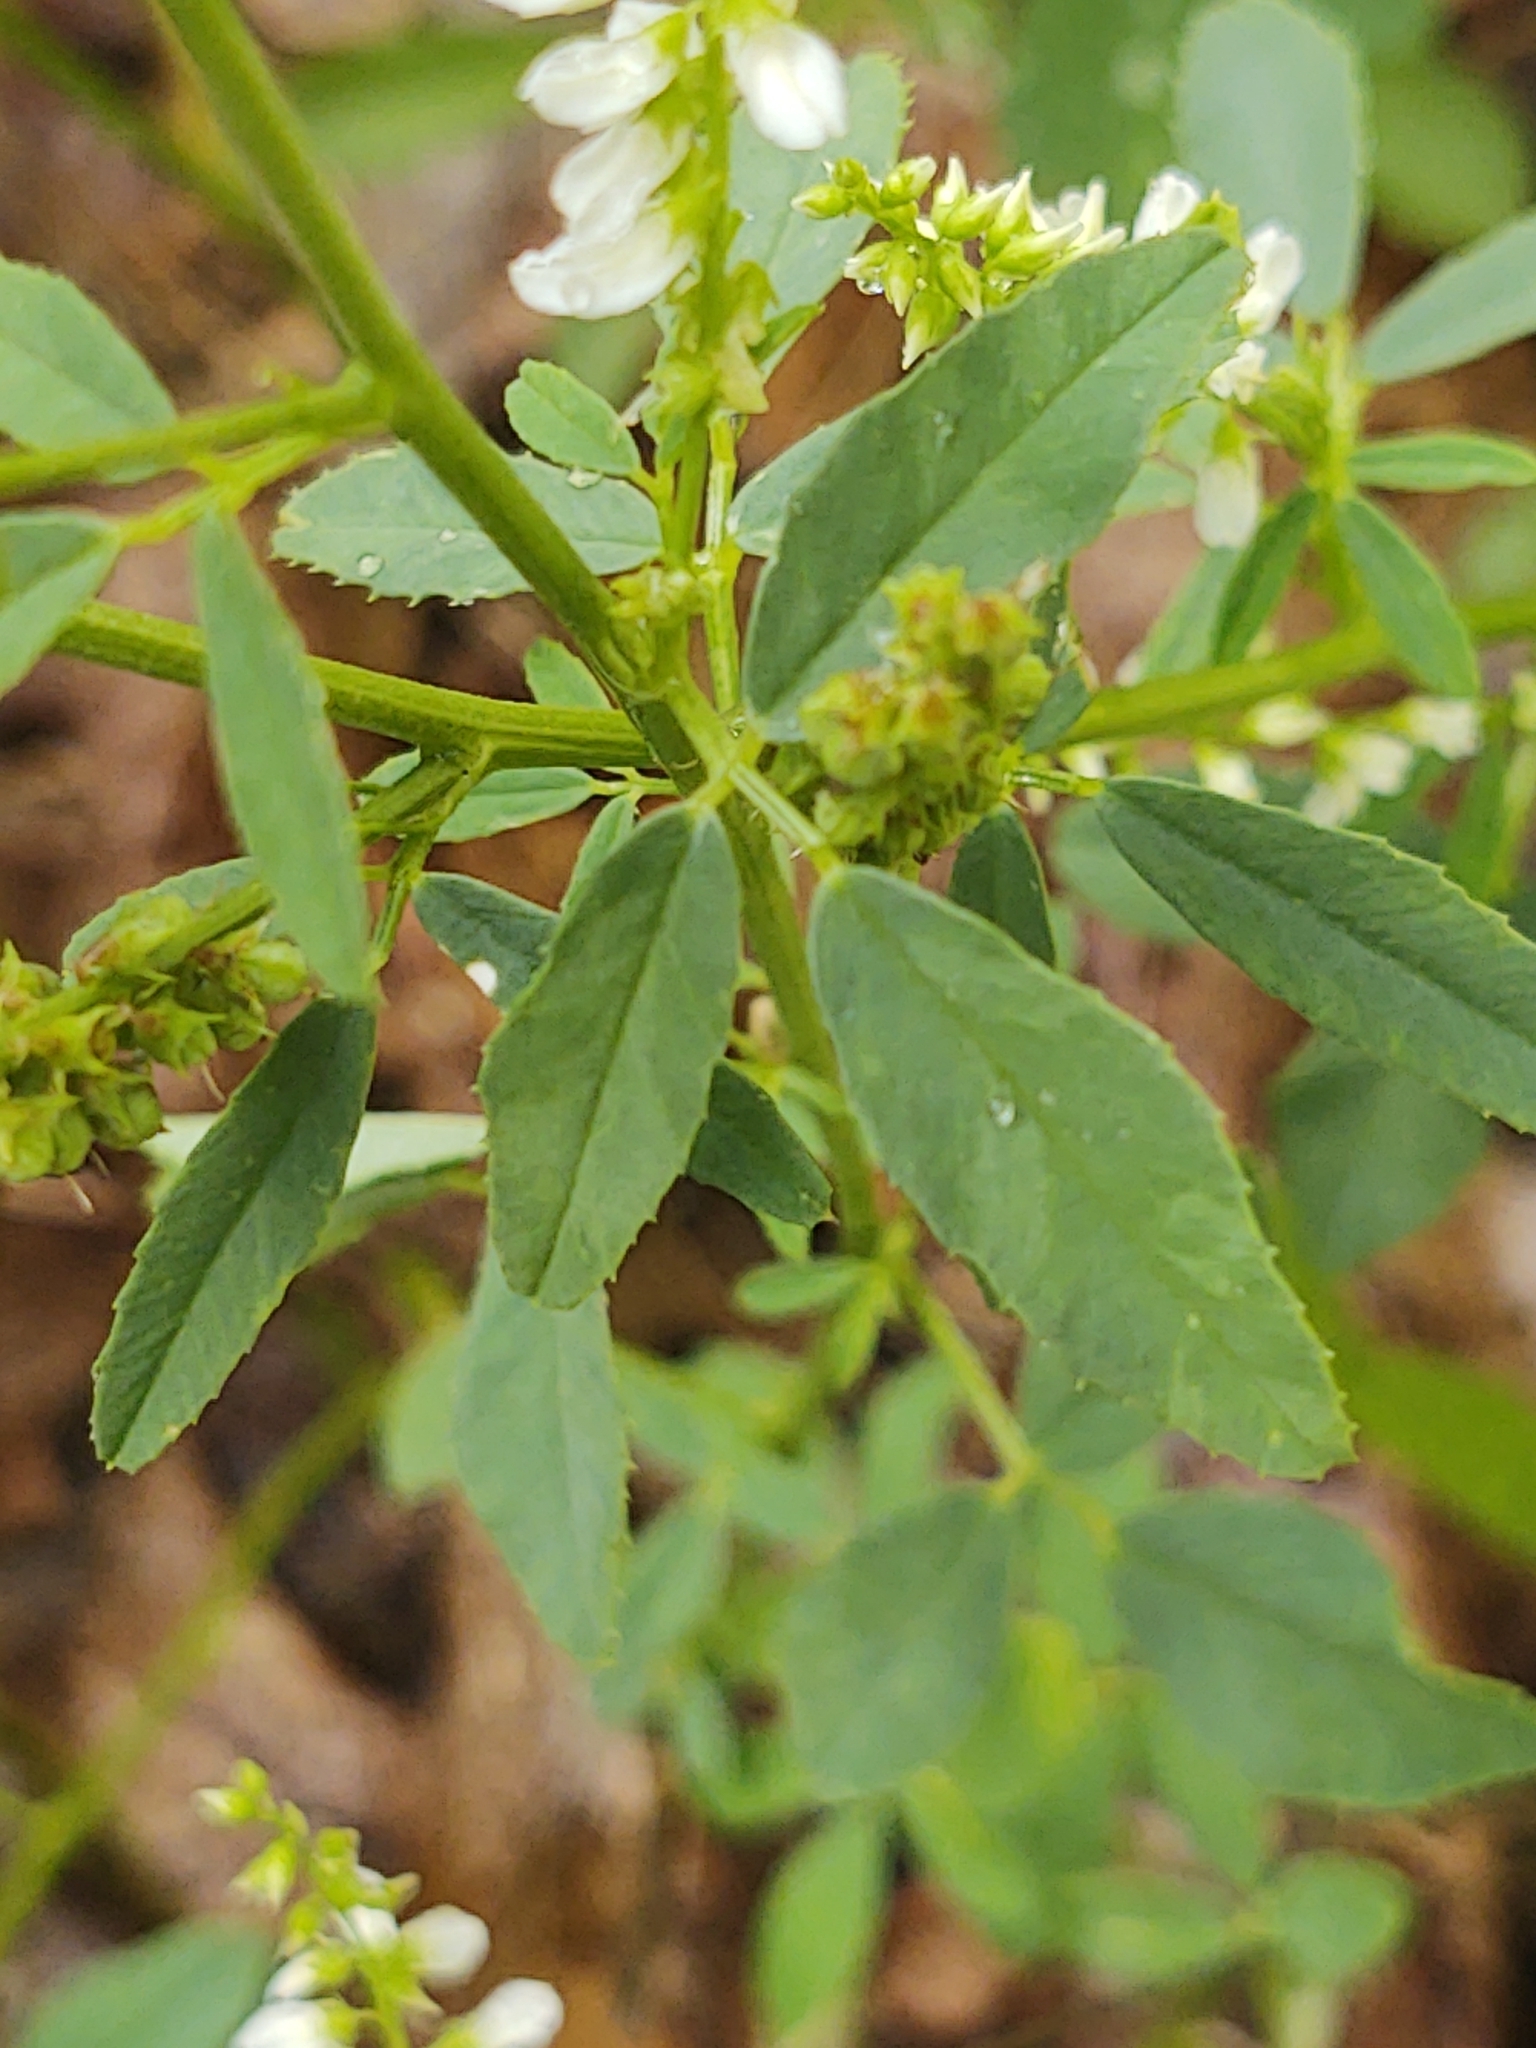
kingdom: Plantae
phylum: Tracheophyta
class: Magnoliopsida
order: Fabales
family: Fabaceae
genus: Melilotus
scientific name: Melilotus albus
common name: White melilot
